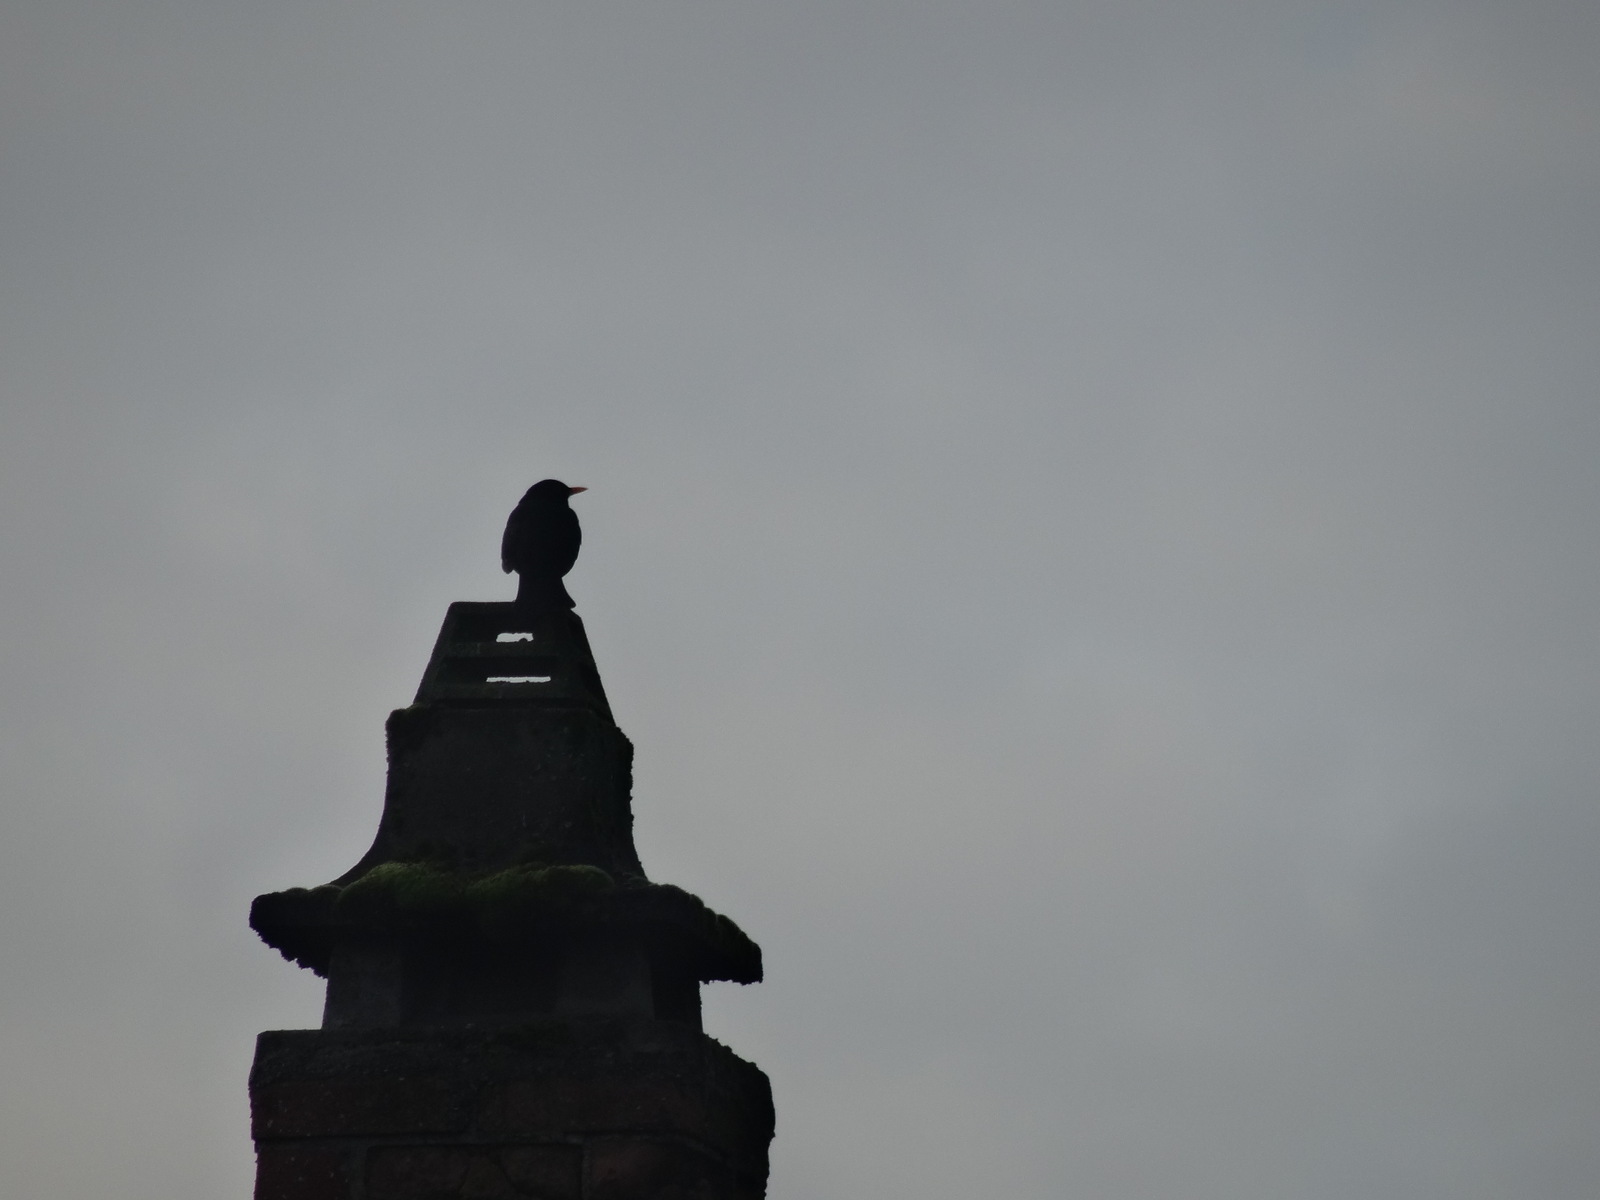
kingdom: Animalia
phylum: Chordata
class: Aves
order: Passeriformes
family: Turdidae
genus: Turdus
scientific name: Turdus merula
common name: Common blackbird
